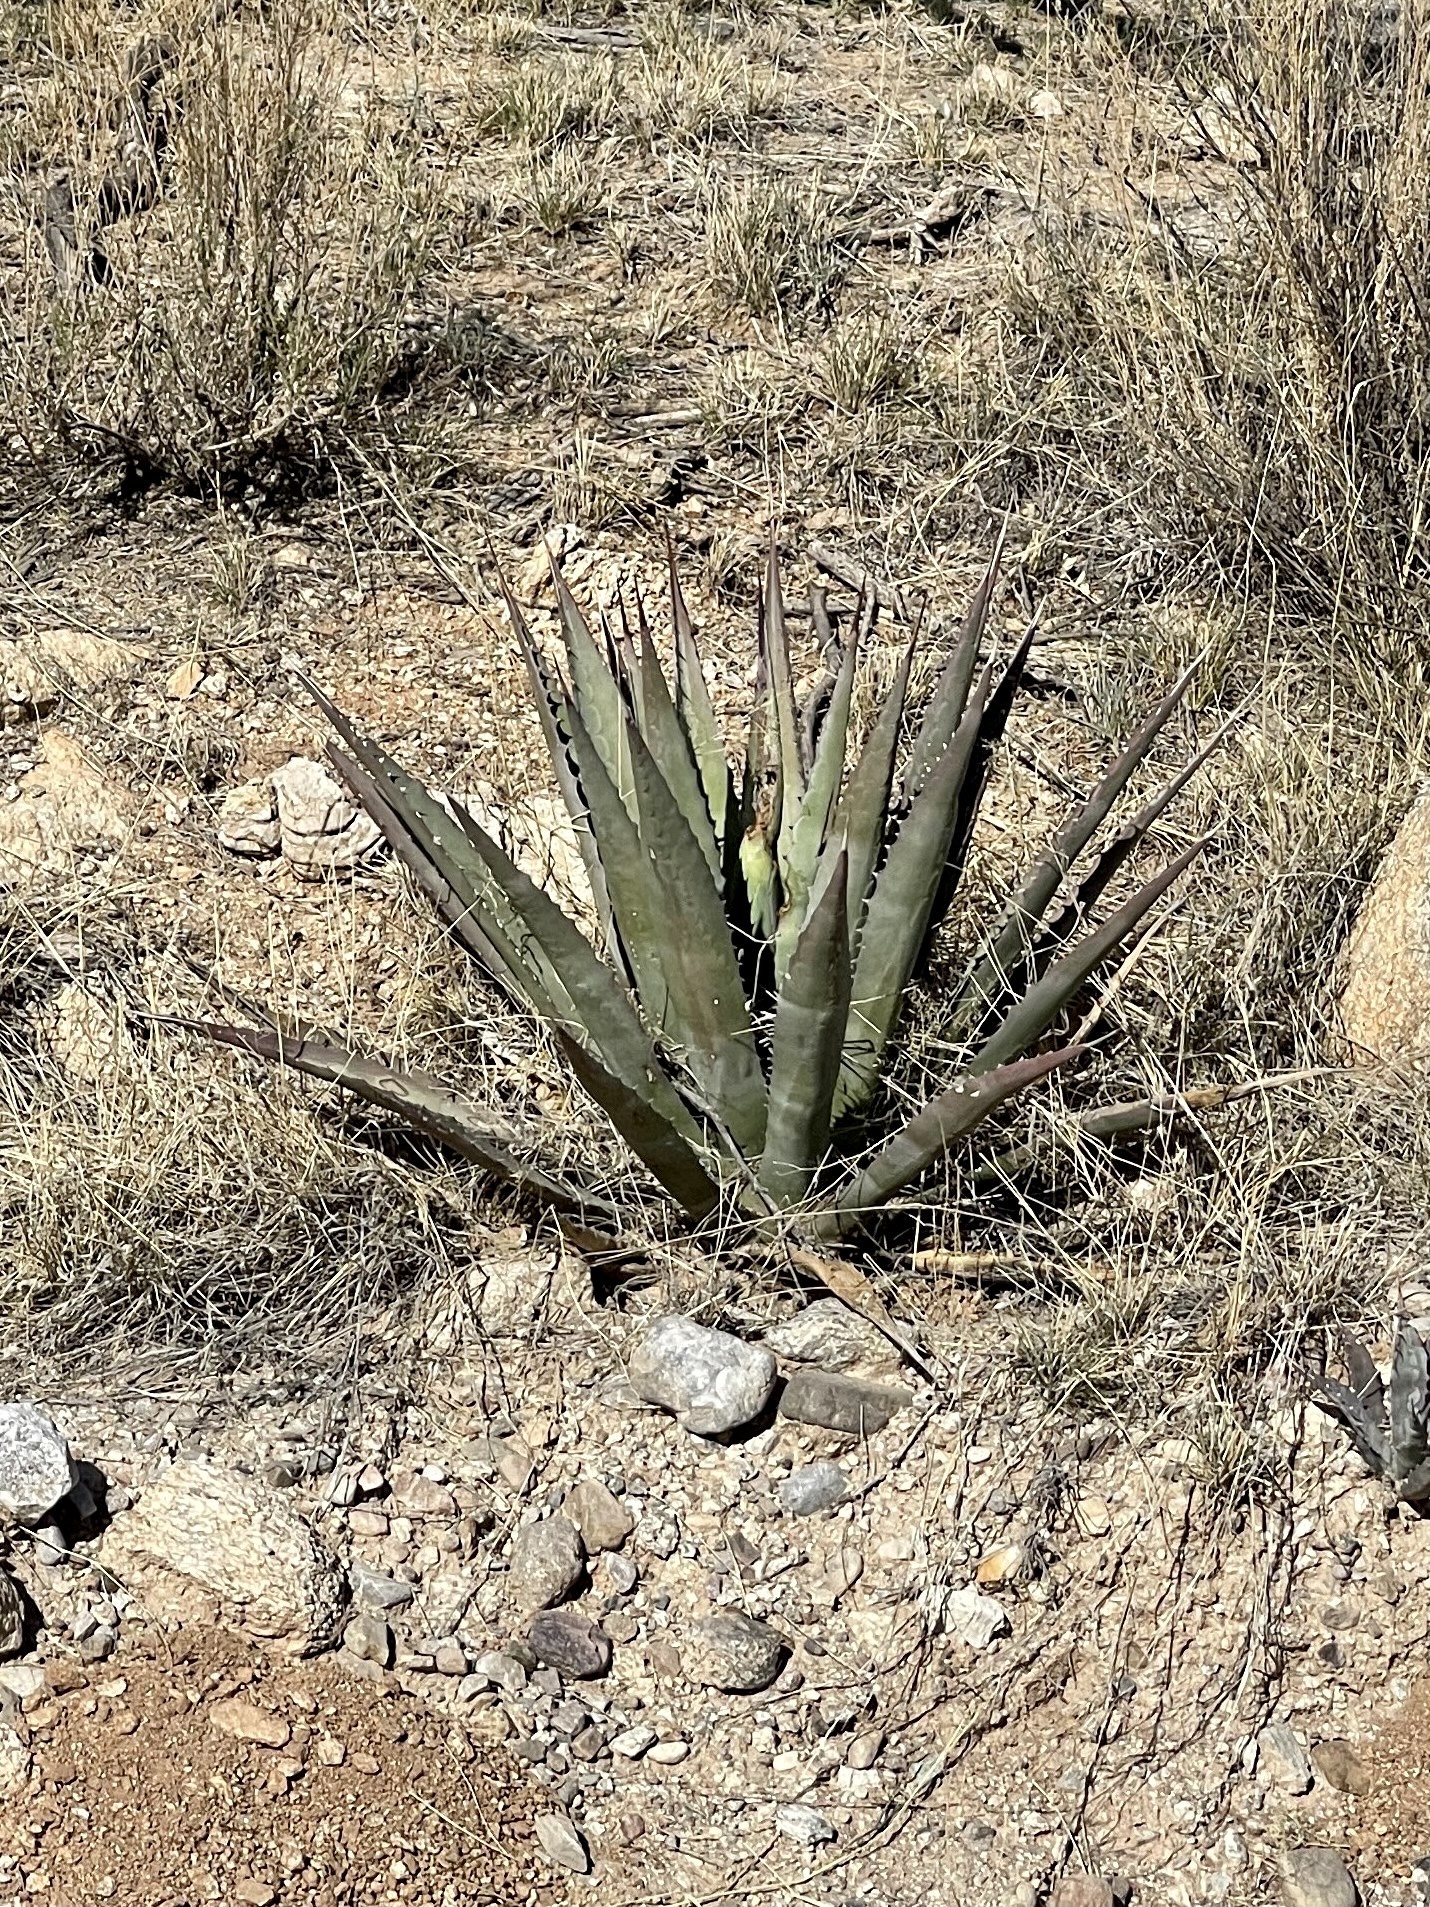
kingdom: Plantae
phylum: Tracheophyta
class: Liliopsida
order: Asparagales
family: Asparagaceae
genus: Agave
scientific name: Agave palmeri
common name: Palmer agave
